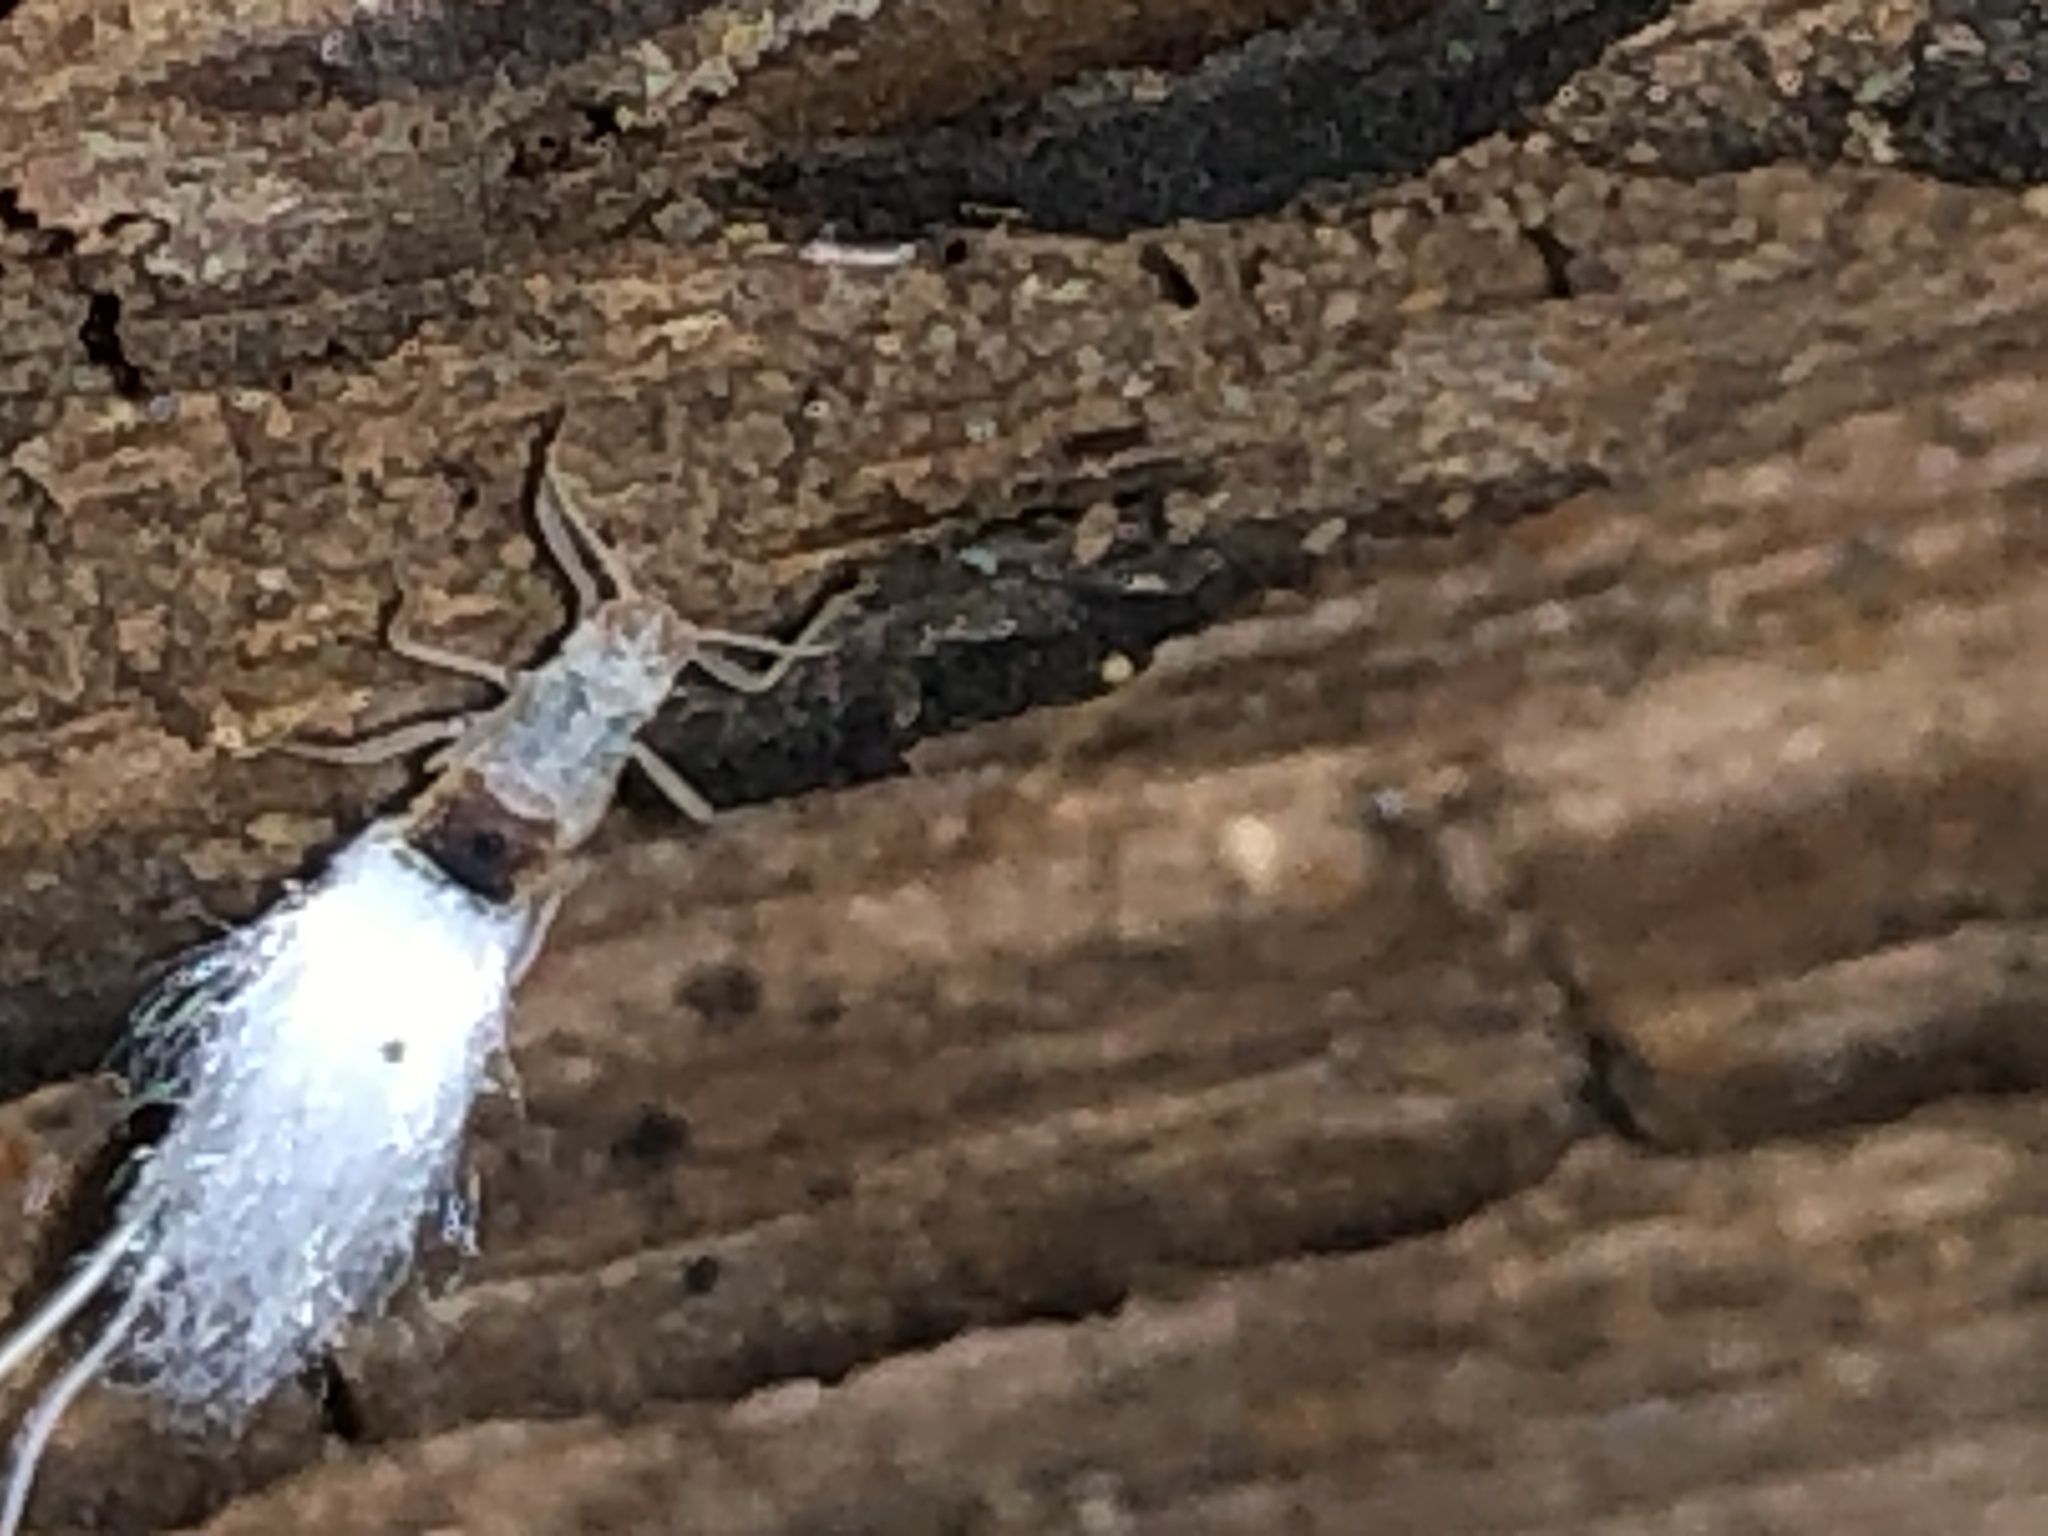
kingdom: Animalia
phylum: Arthropoda
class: Insecta
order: Hemiptera
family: Aphididae
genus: Grylloprociphilus
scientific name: Grylloprociphilus imbricator
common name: Beech blight aphid
